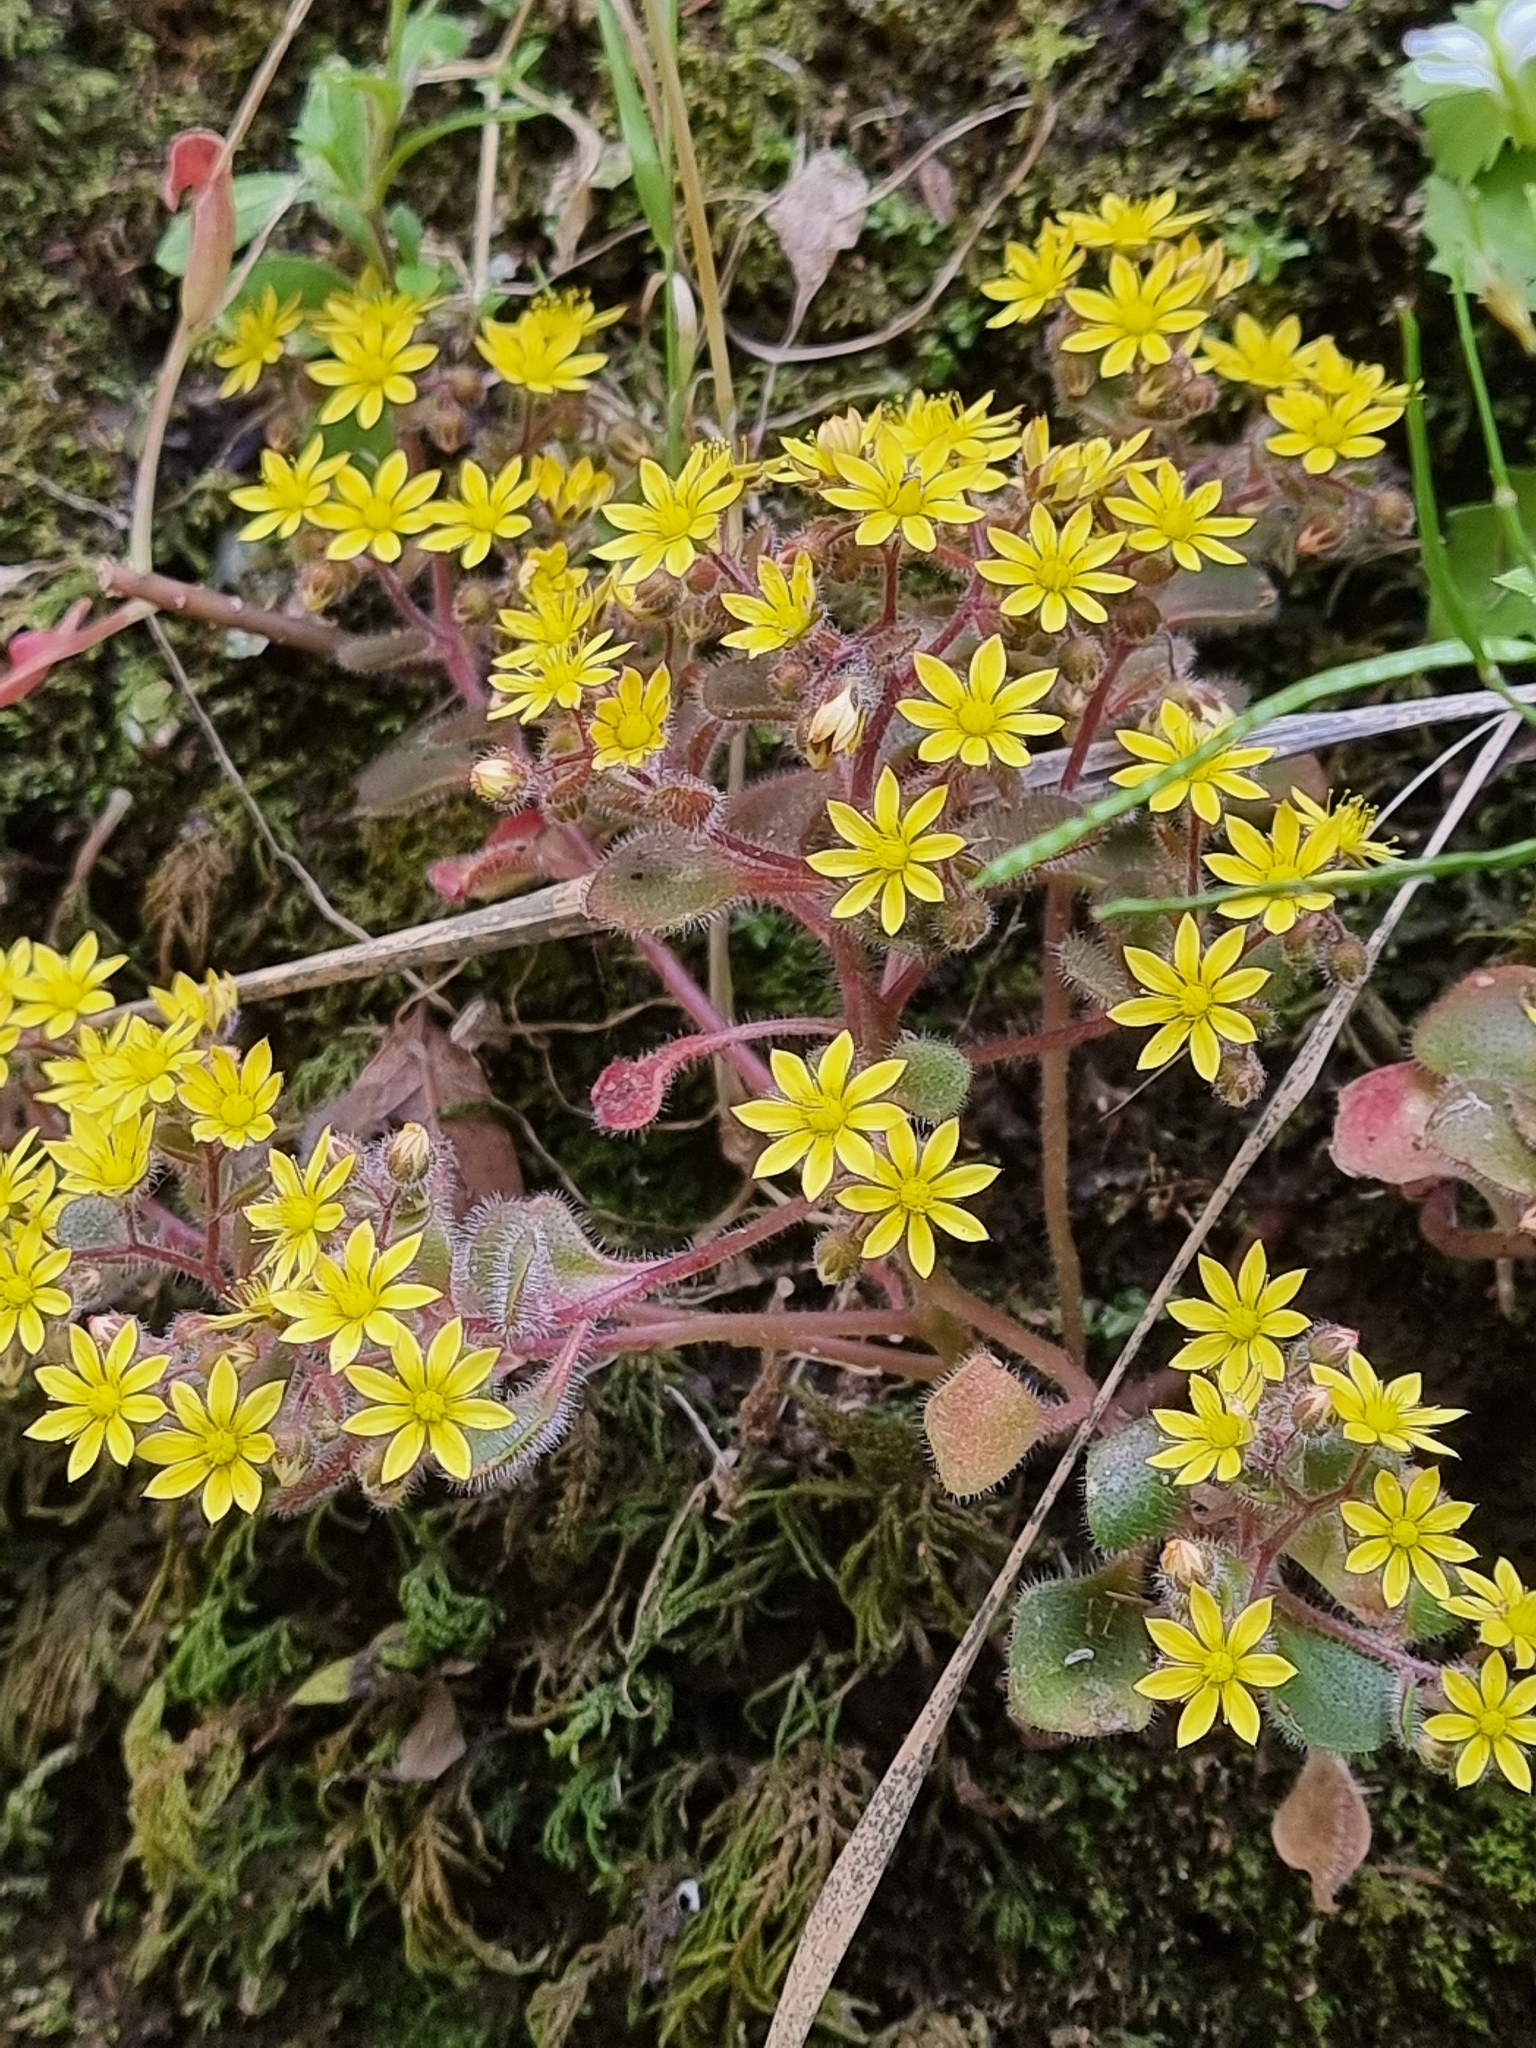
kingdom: Plantae
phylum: Tracheophyta
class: Magnoliopsida
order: Saxifragales
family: Crassulaceae
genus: Aichryson
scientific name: Aichryson villosum
